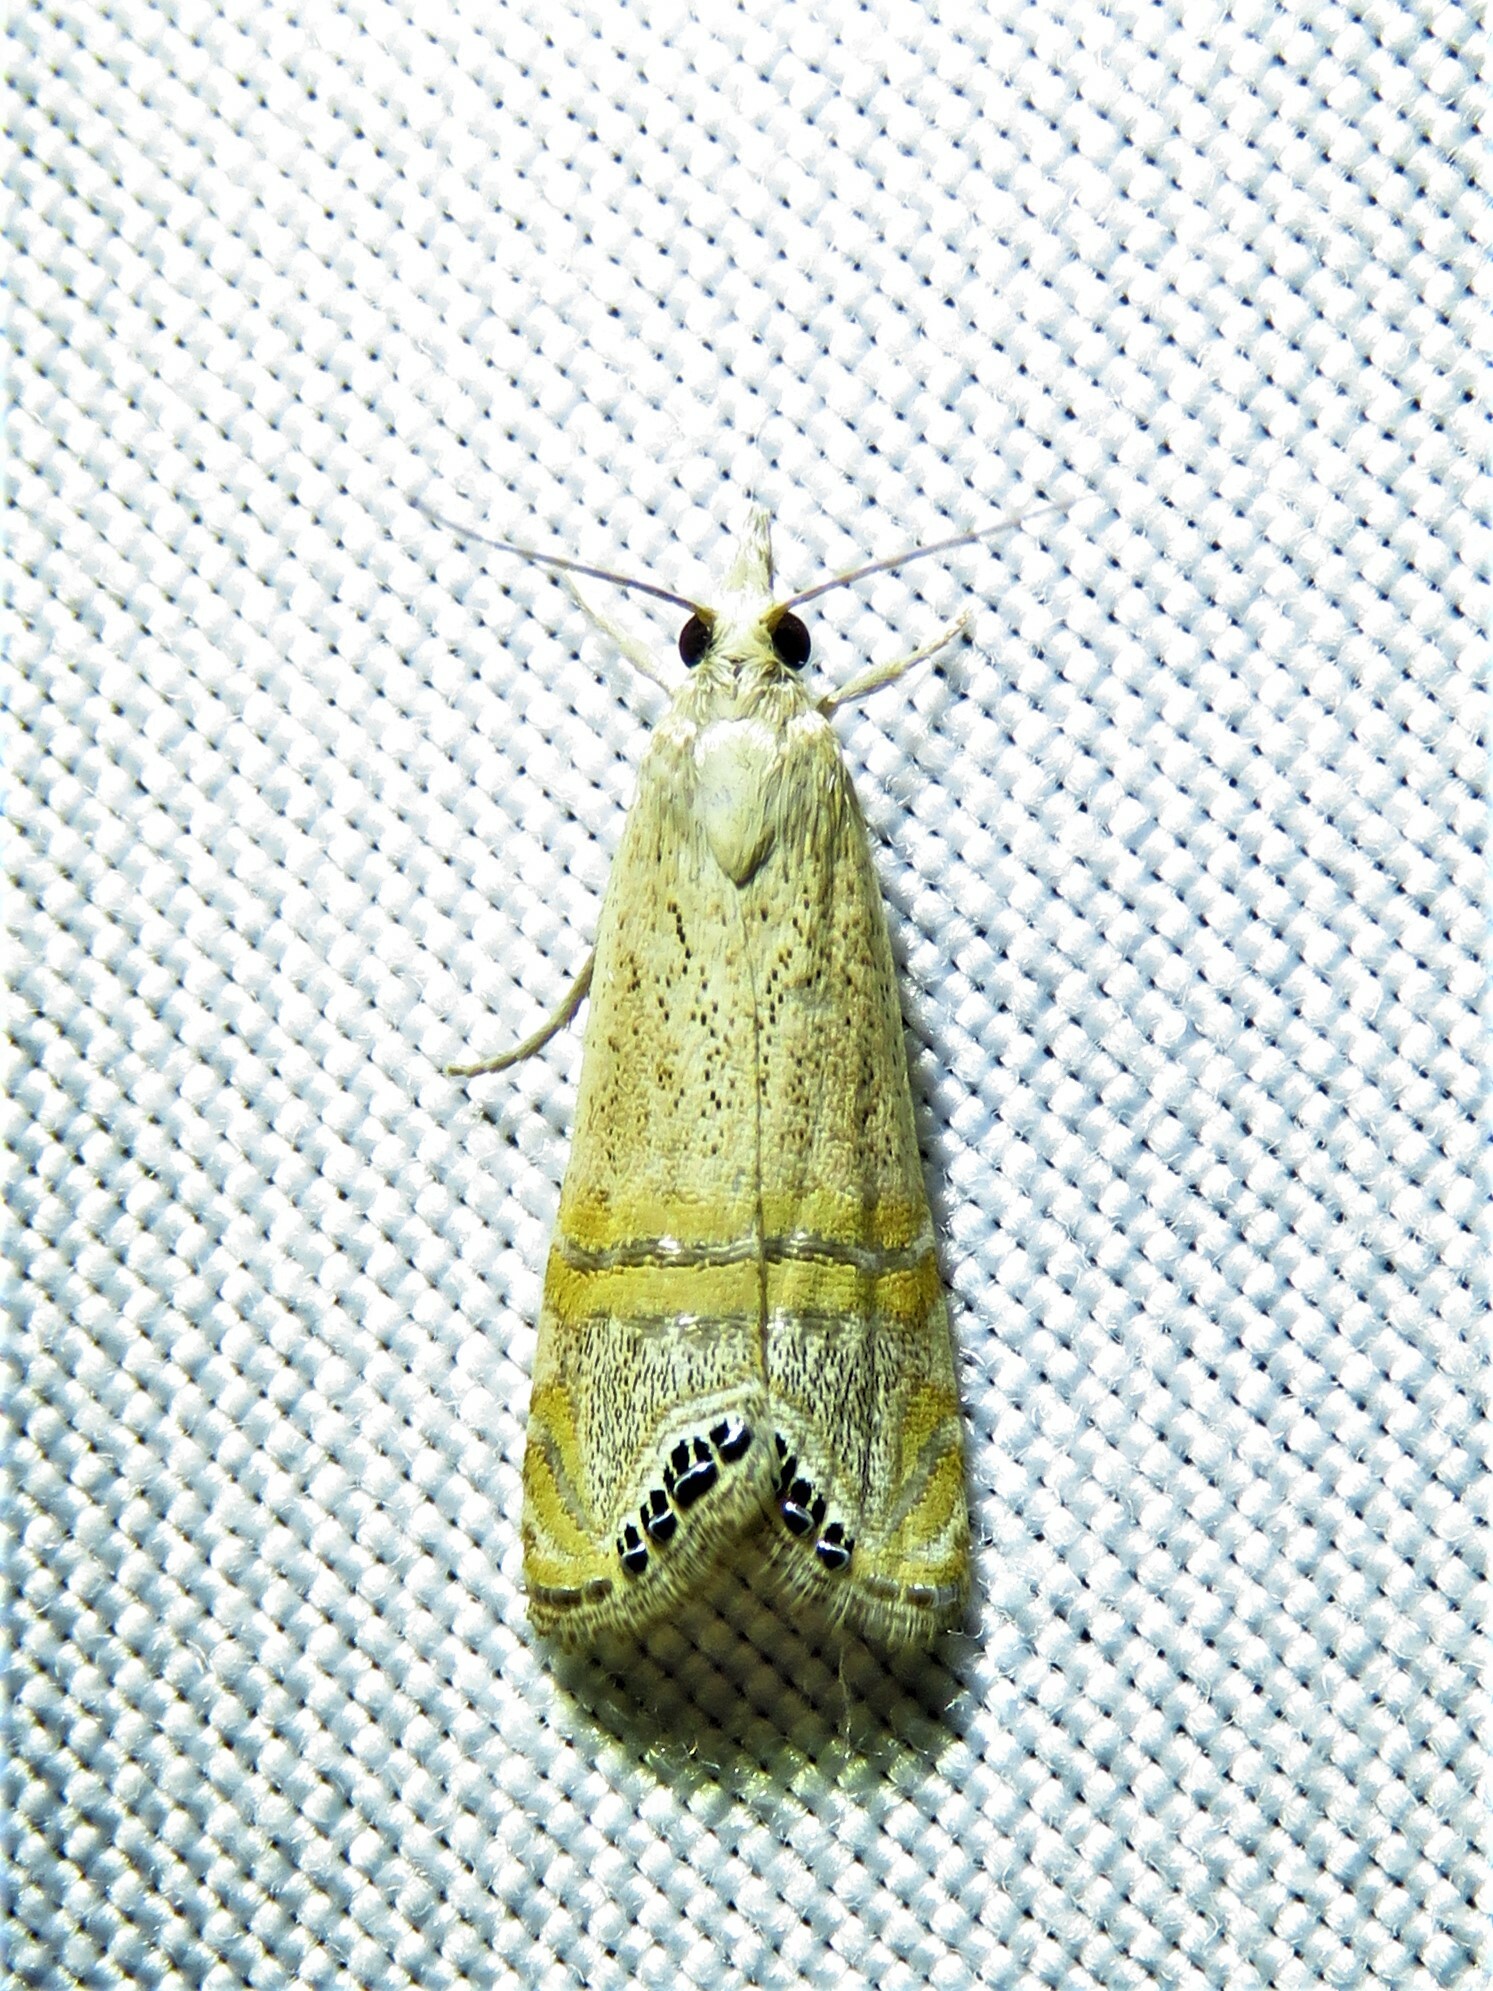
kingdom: Animalia
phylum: Arthropoda
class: Insecta
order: Lepidoptera
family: Crambidae
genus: Euchromius
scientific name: Euchromius ocellea
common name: Necklace veneer moth
